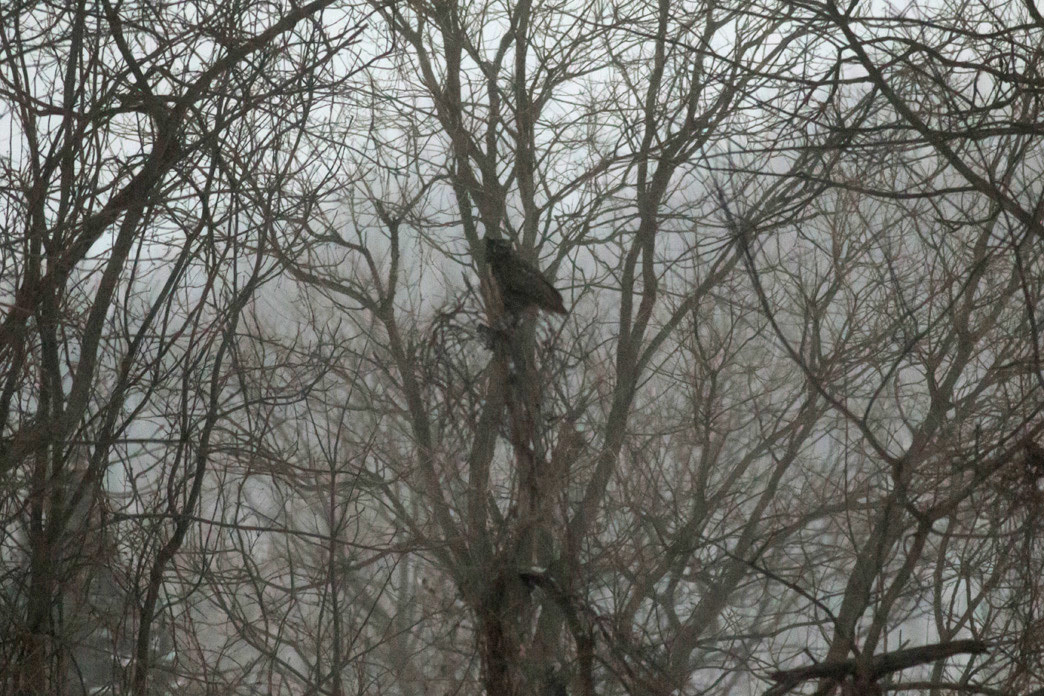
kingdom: Animalia
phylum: Chordata
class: Aves
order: Strigiformes
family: Strigidae
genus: Bubo
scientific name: Bubo virginianus
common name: Great horned owl
